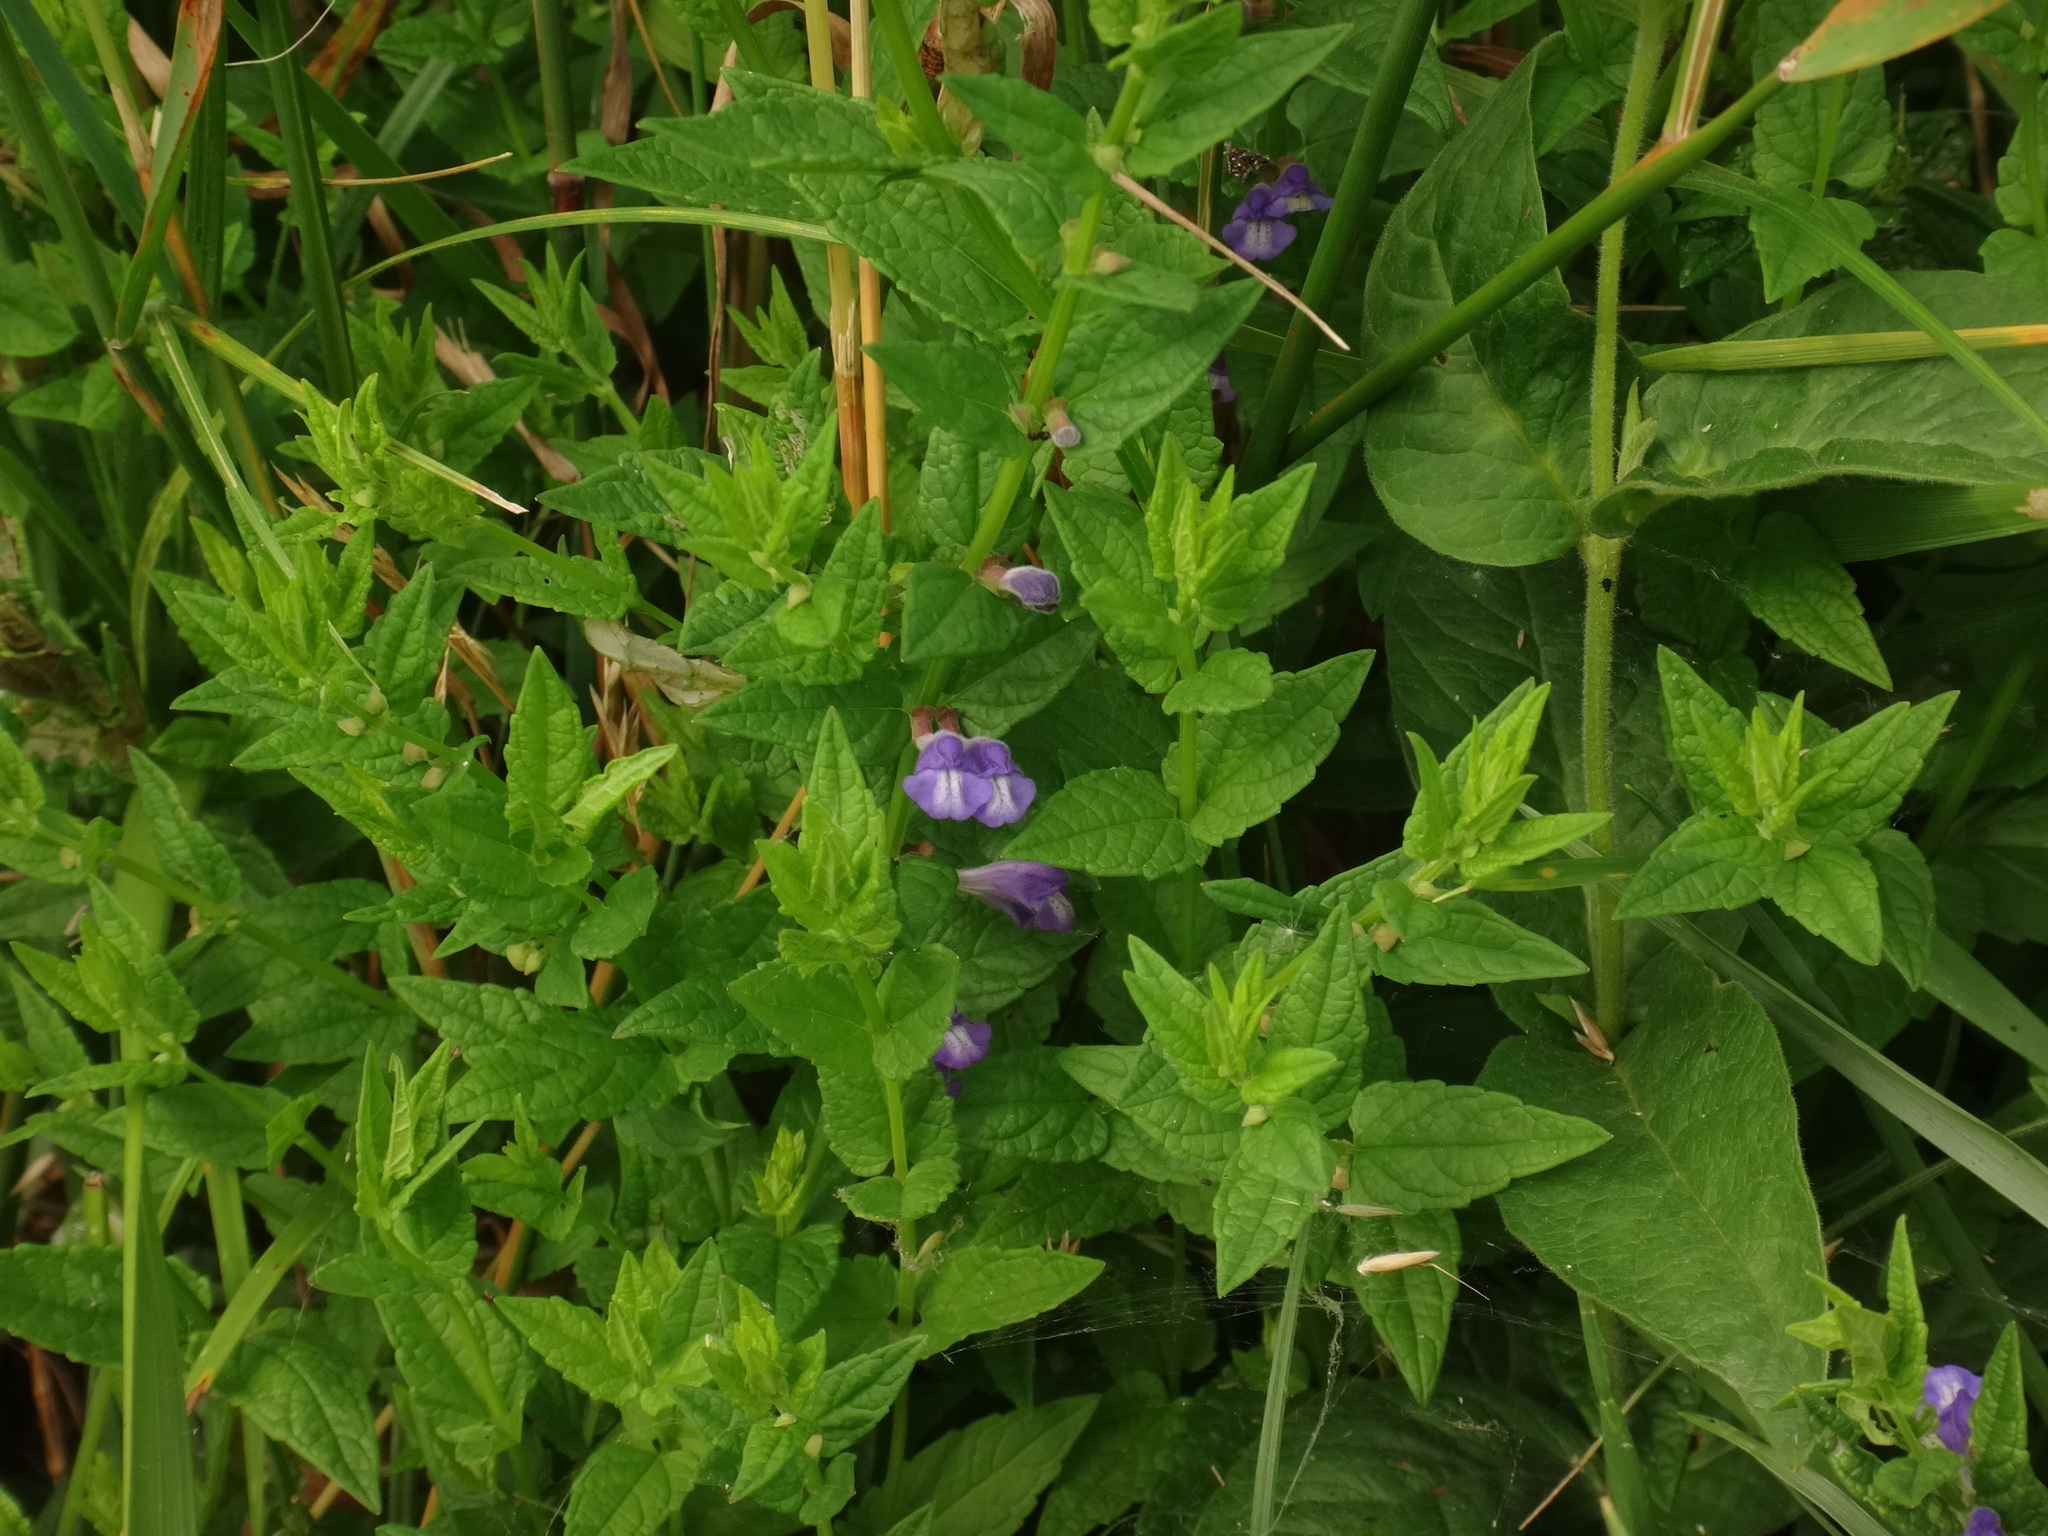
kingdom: Plantae
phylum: Tracheophyta
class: Magnoliopsida
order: Lamiales
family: Lamiaceae
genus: Scutellaria
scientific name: Scutellaria galericulata
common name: Skullcap
